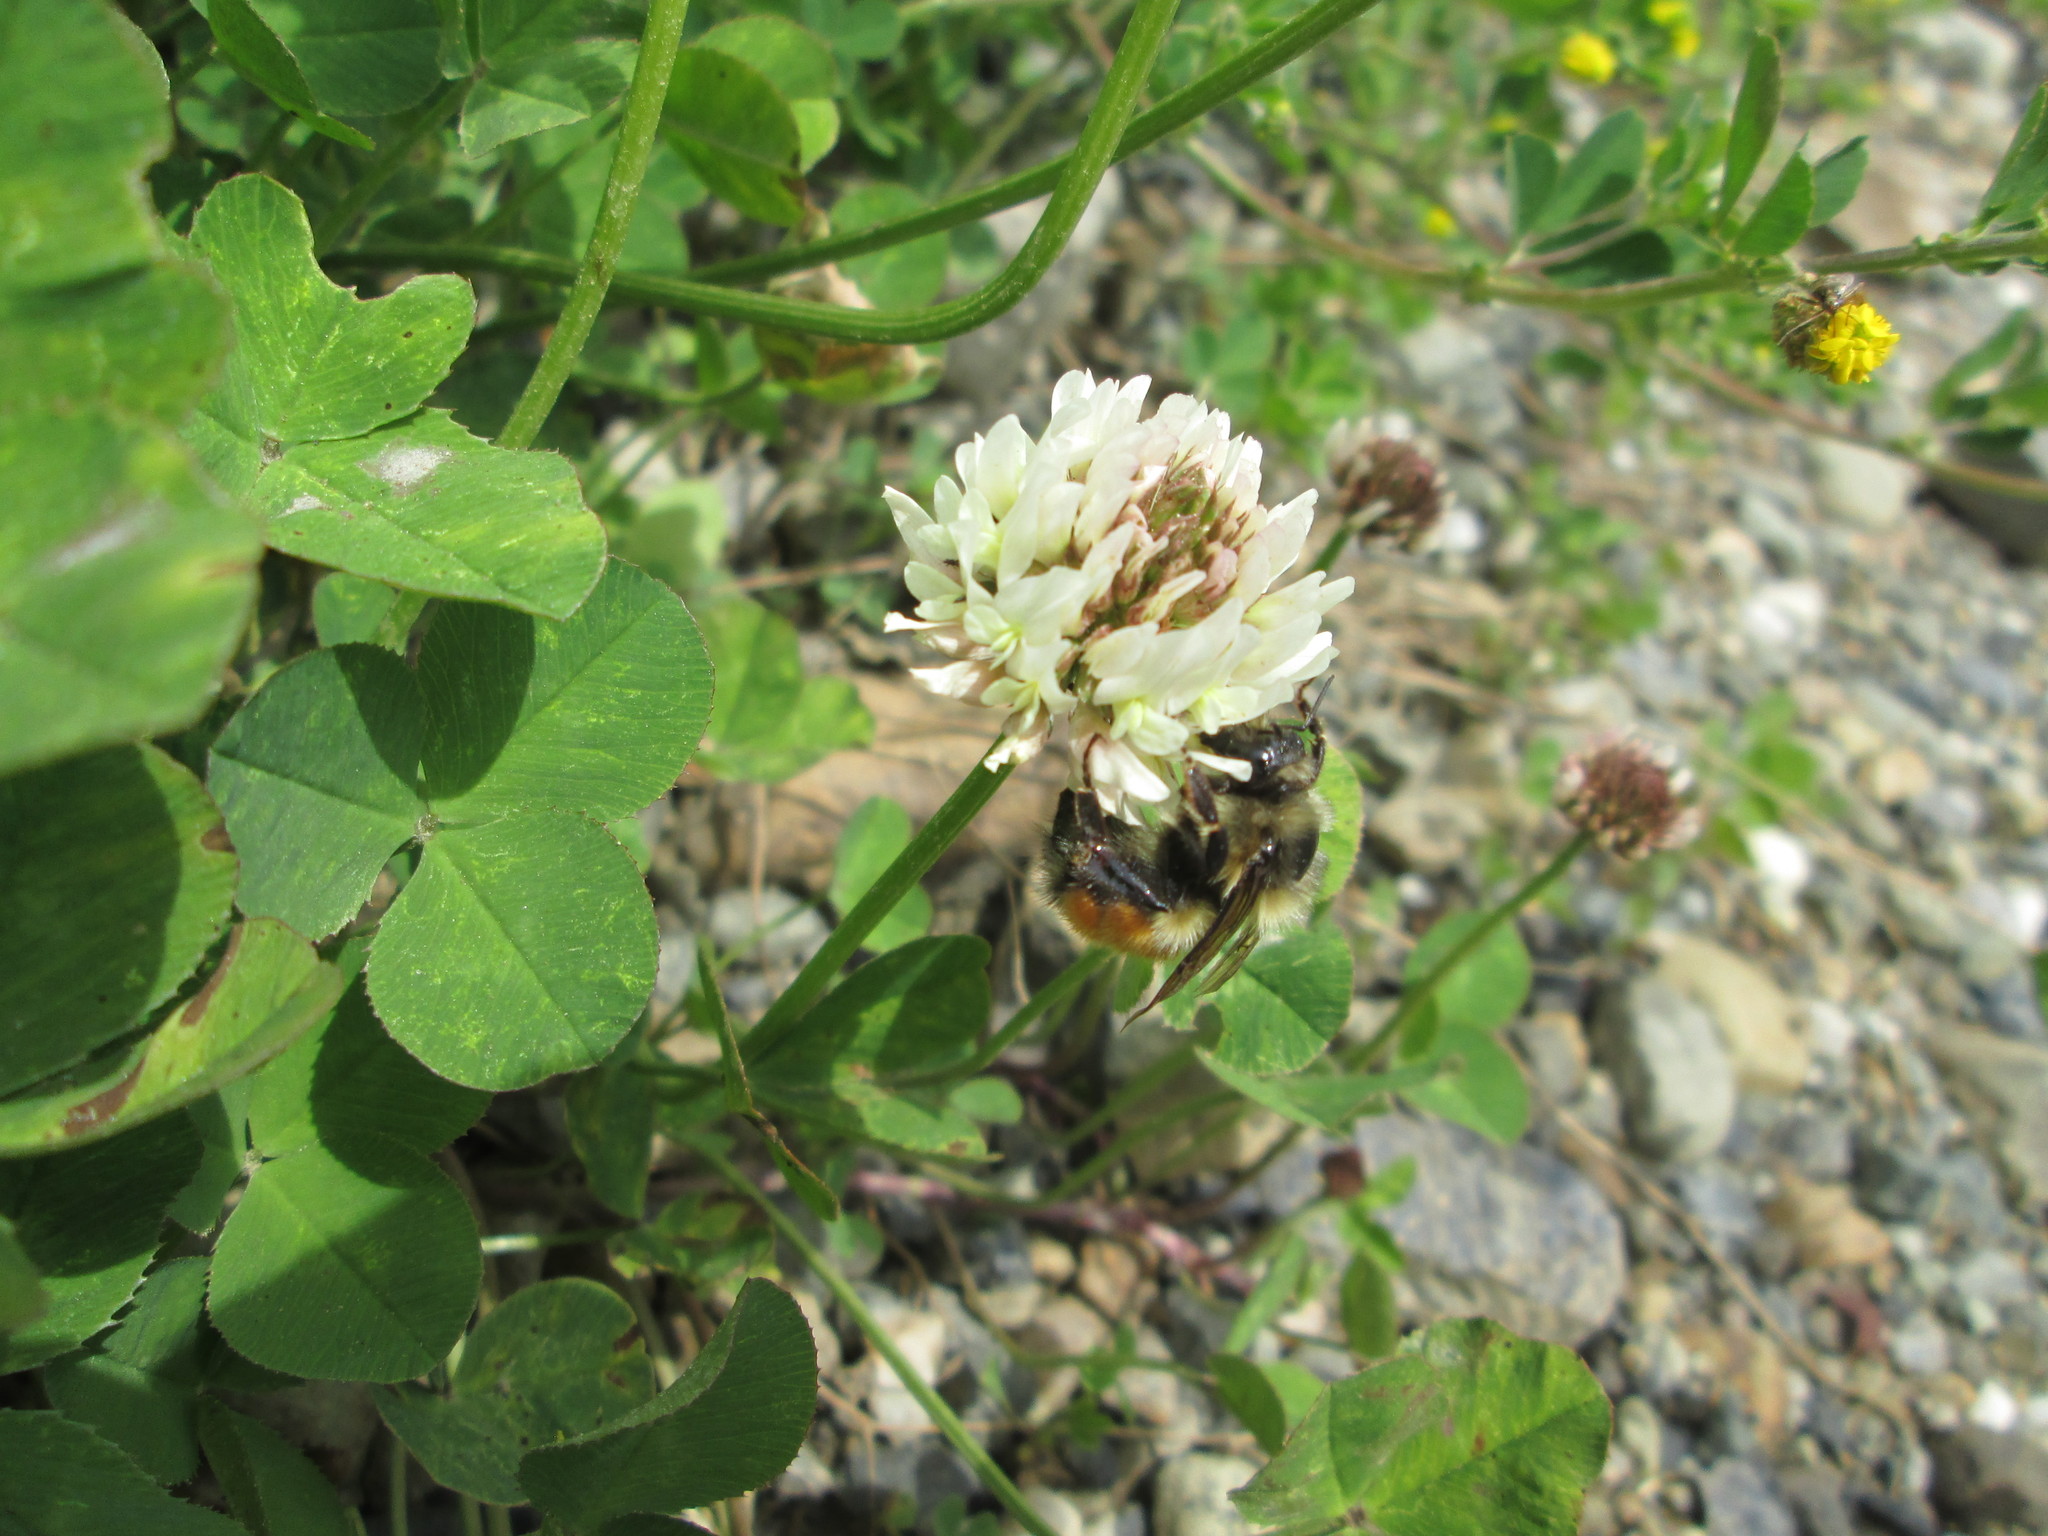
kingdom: Animalia
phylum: Arthropoda
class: Insecta
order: Hymenoptera
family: Apidae
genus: Bombus
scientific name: Bombus melanopygus
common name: Black tail bumble bee
